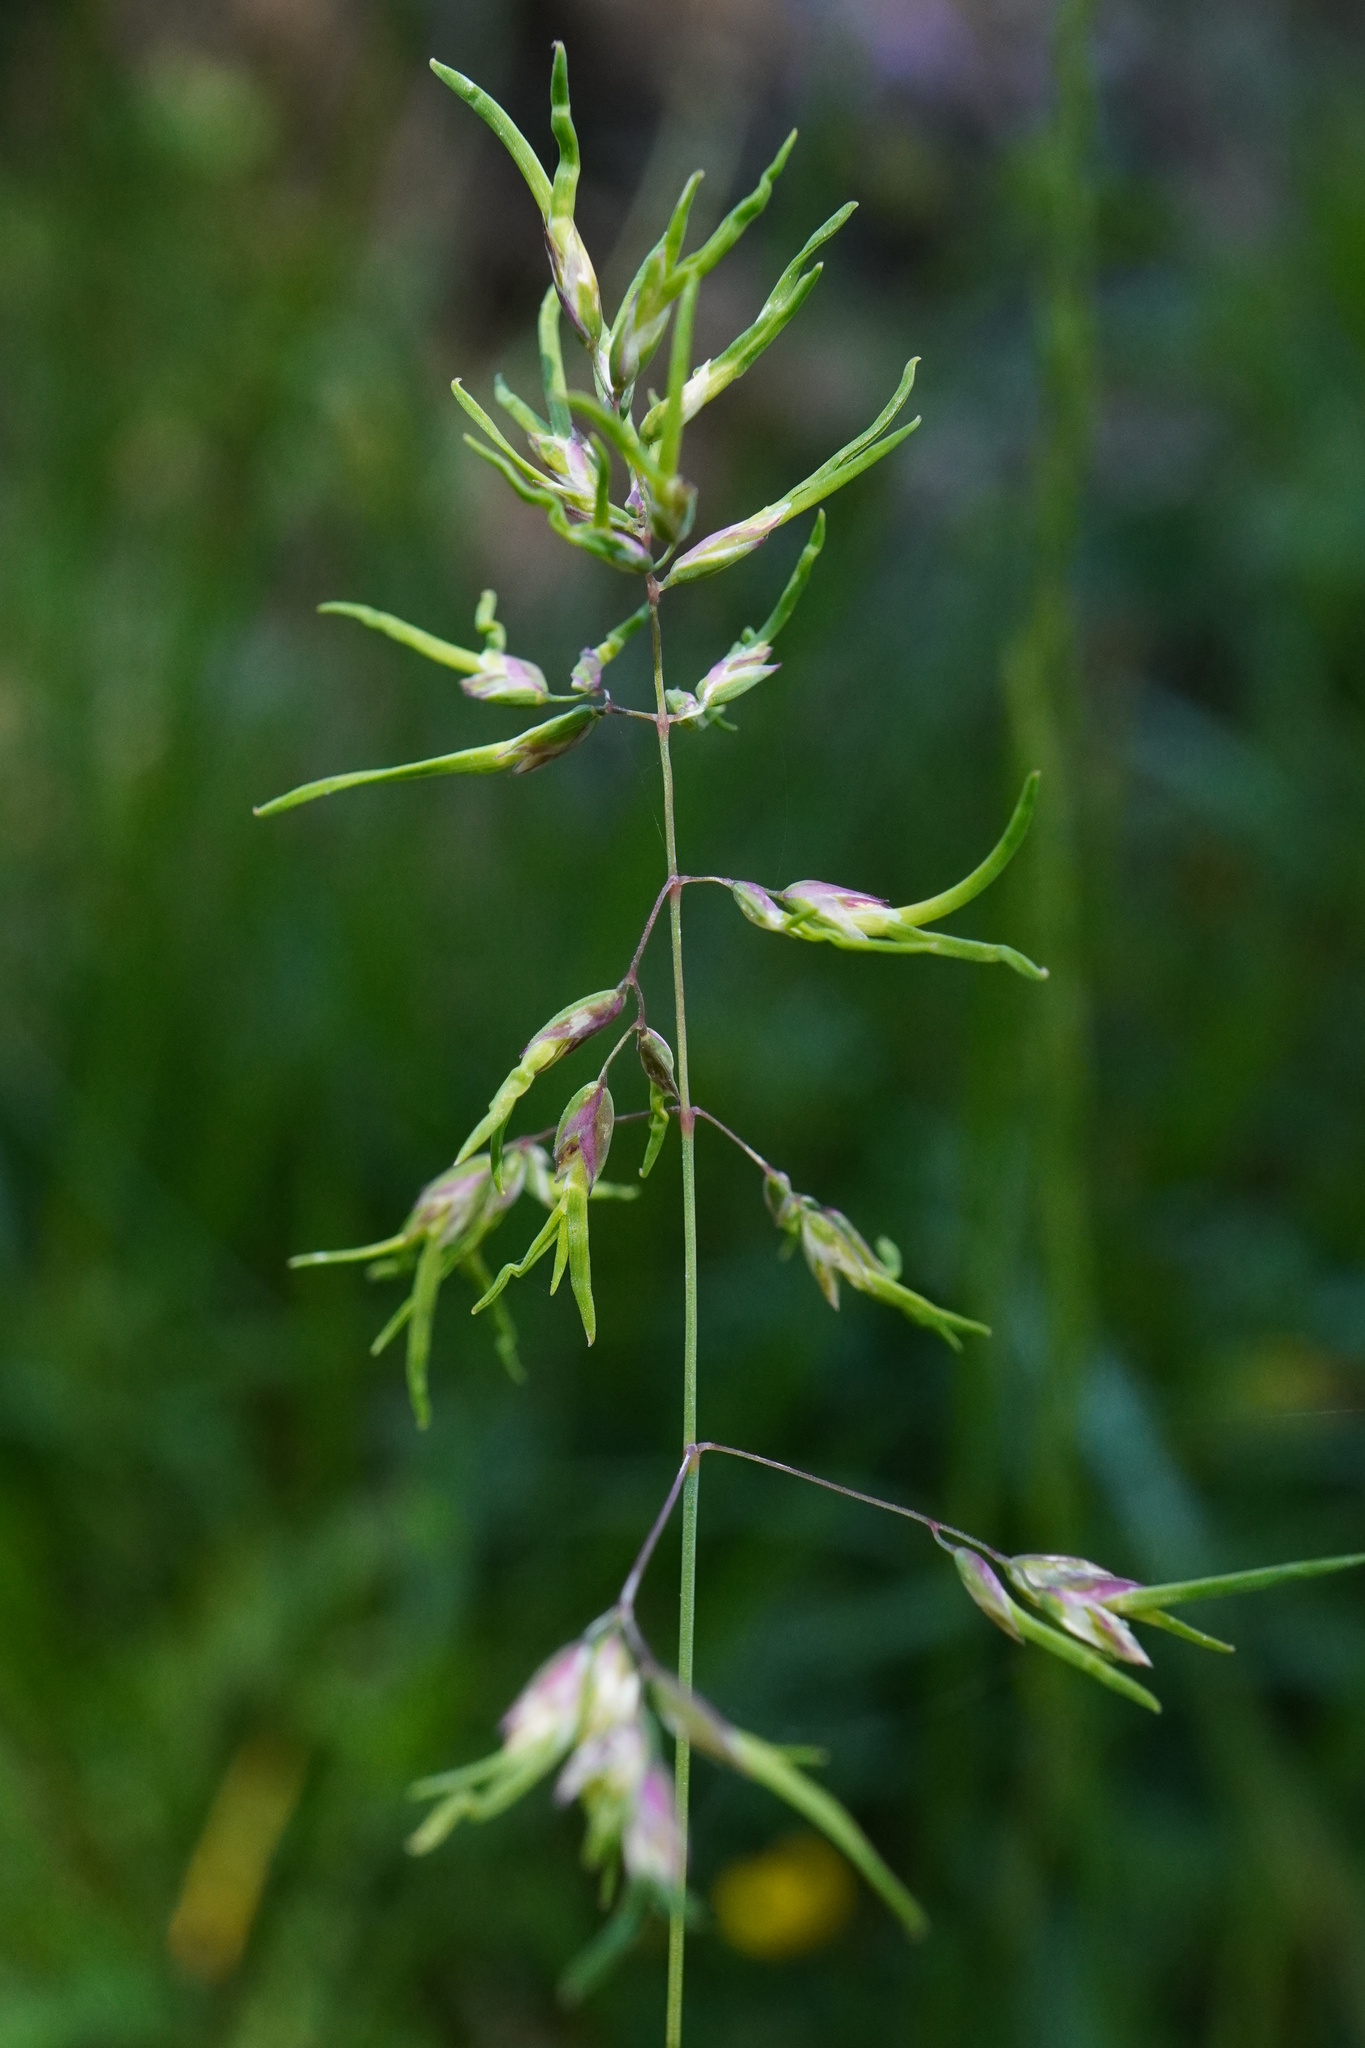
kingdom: Plantae
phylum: Tracheophyta
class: Liliopsida
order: Poales
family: Poaceae
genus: Poa
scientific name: Poa alpina
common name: Alpine bluegrass
